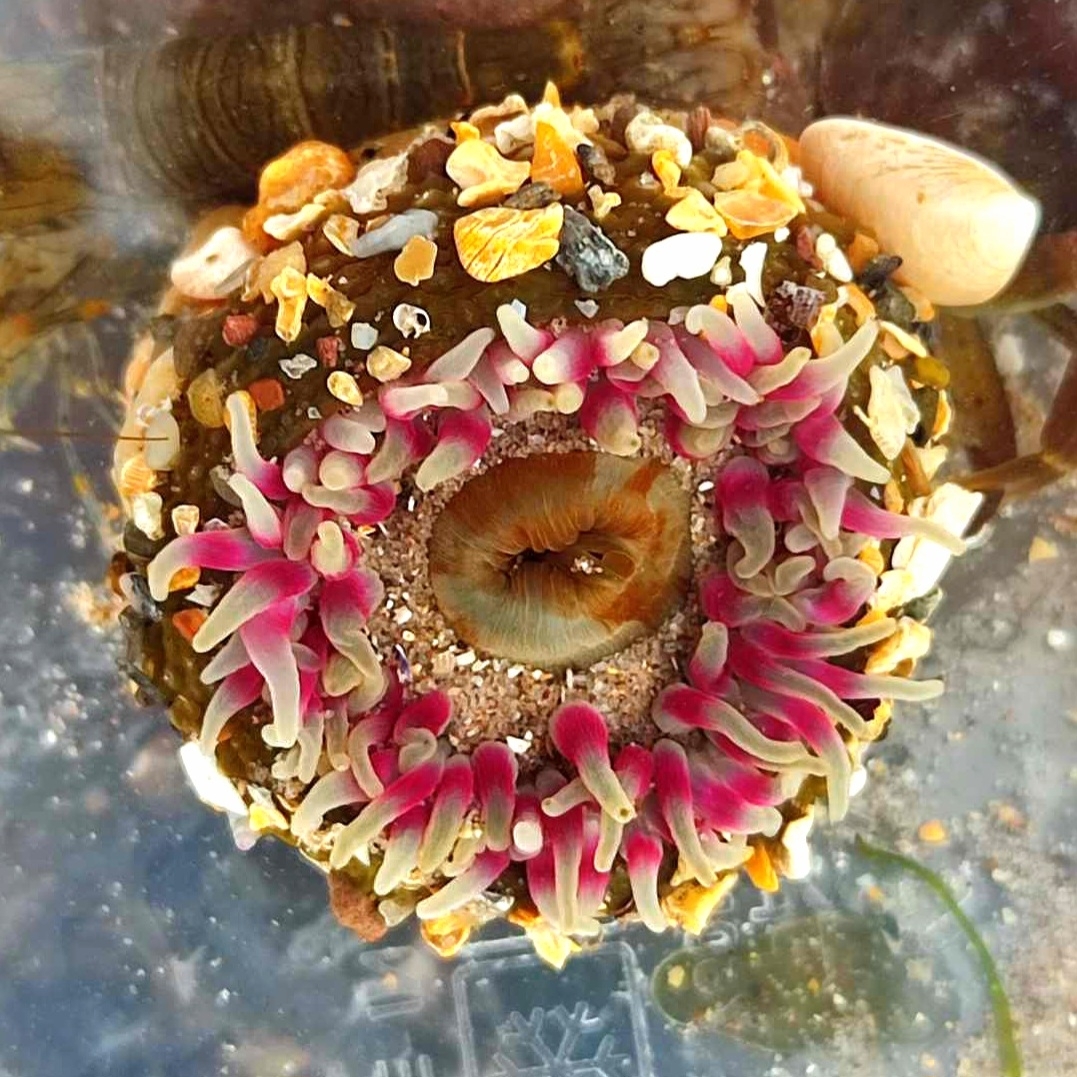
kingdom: Animalia
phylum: Cnidaria
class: Anthozoa
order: Actiniaria
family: Actiniidae
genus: Urticina
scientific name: Urticina felina
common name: Dahlia anemone
